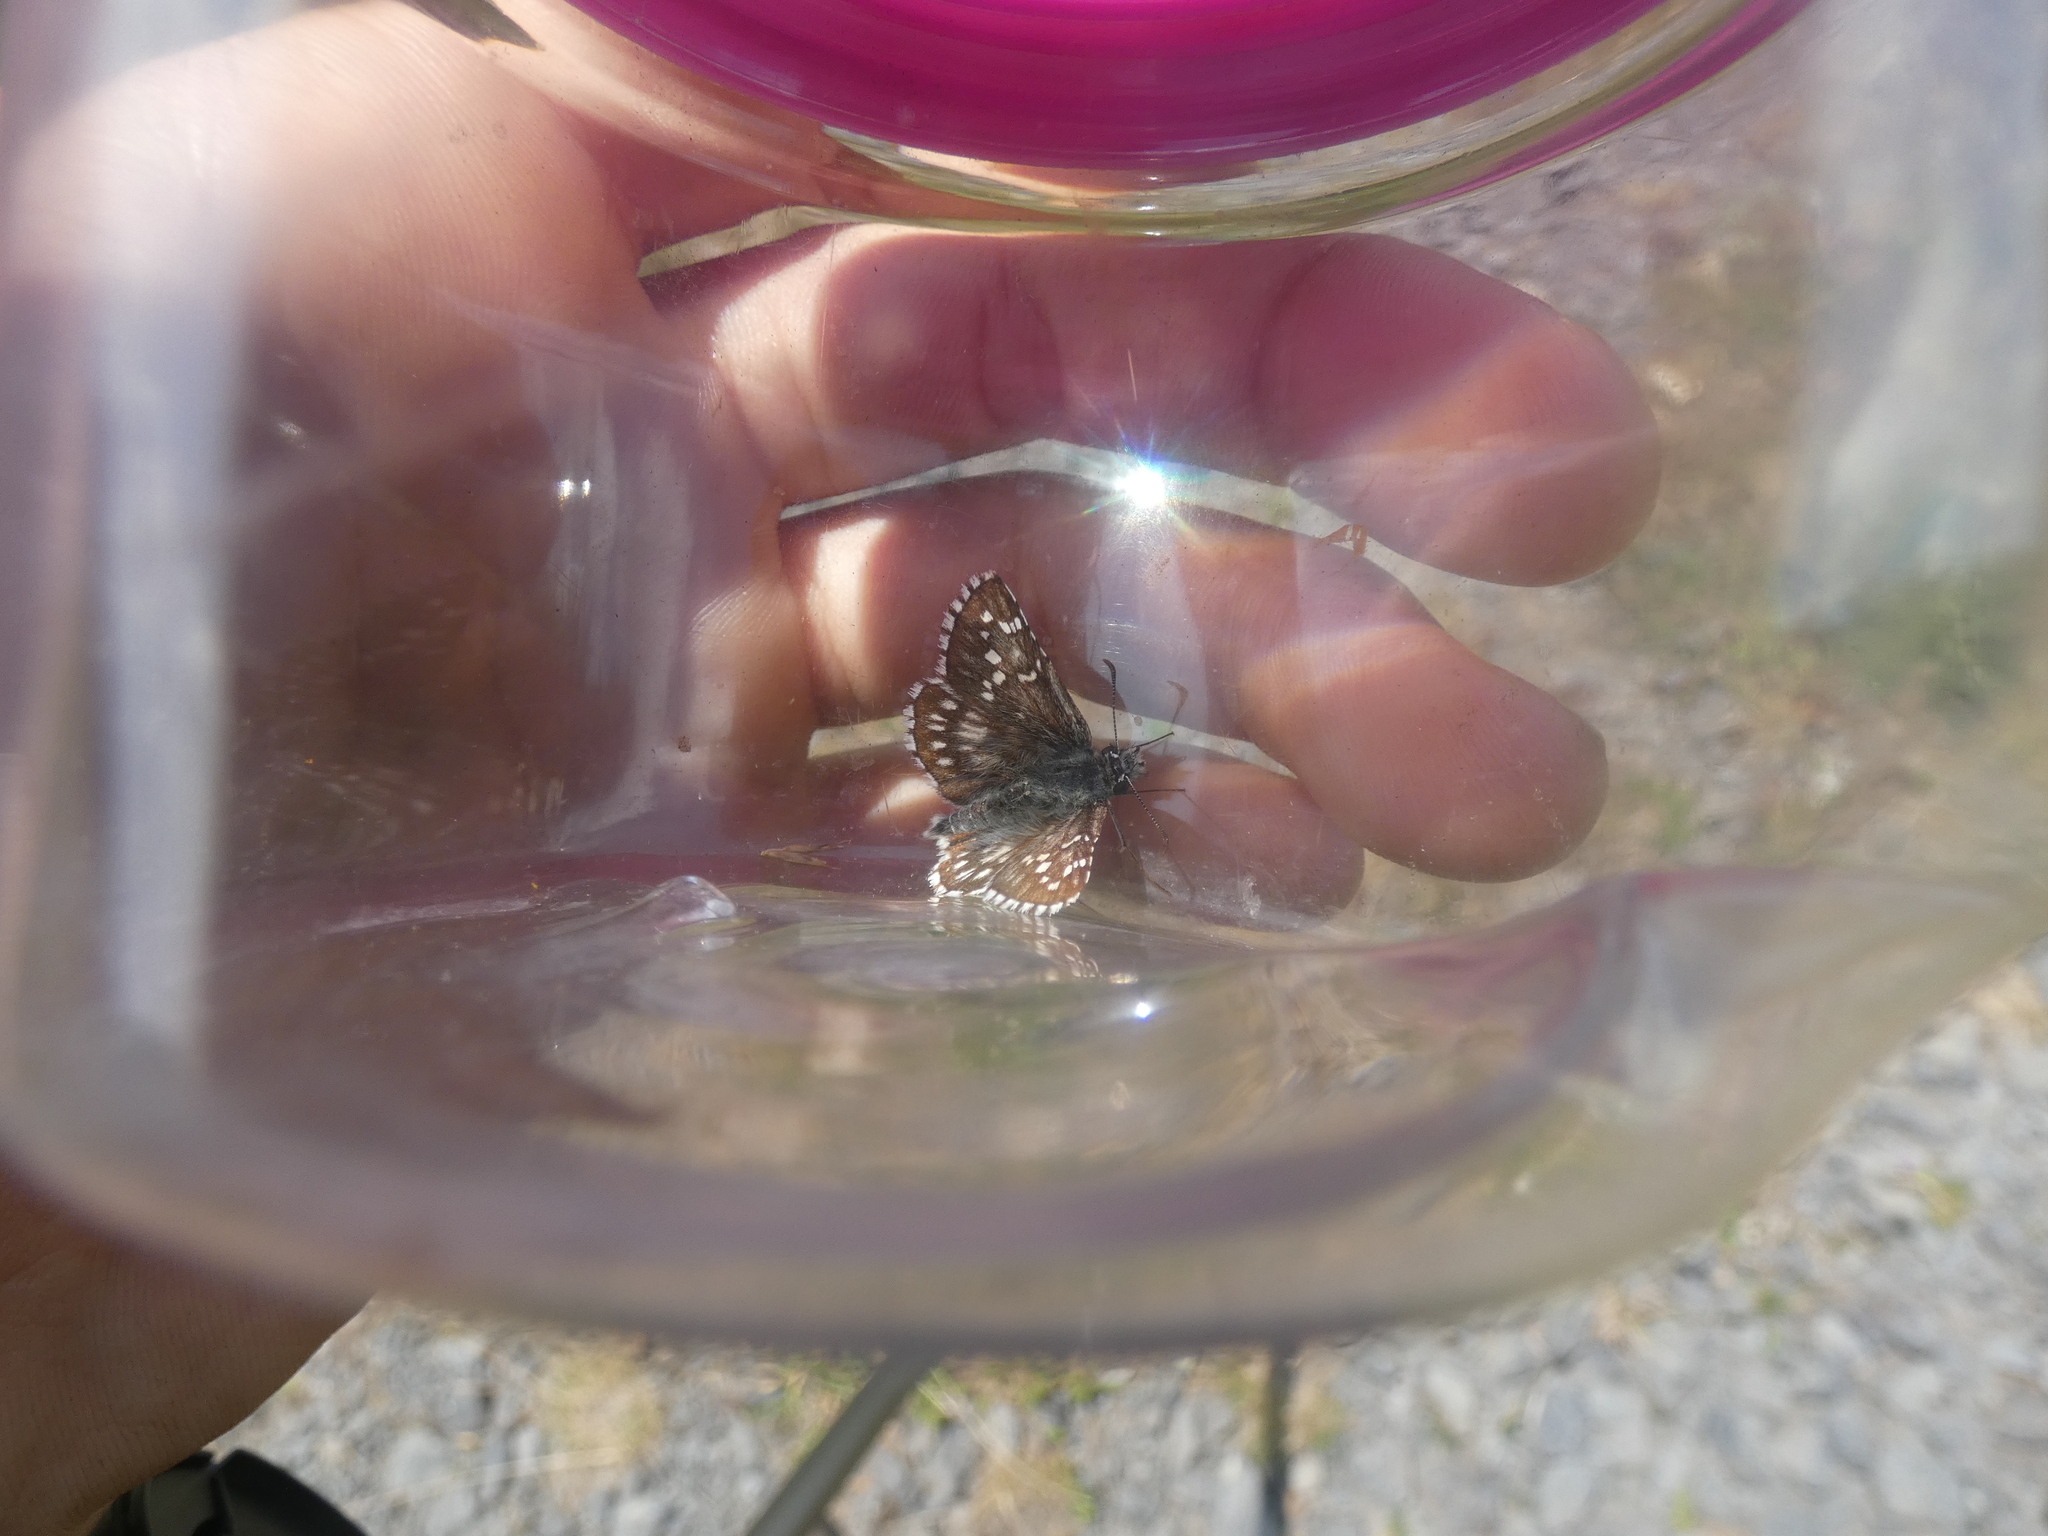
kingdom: Animalia
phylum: Arthropoda
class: Insecta
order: Lepidoptera
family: Hesperiidae
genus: Pyrgus
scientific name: Pyrgus fritillarius
